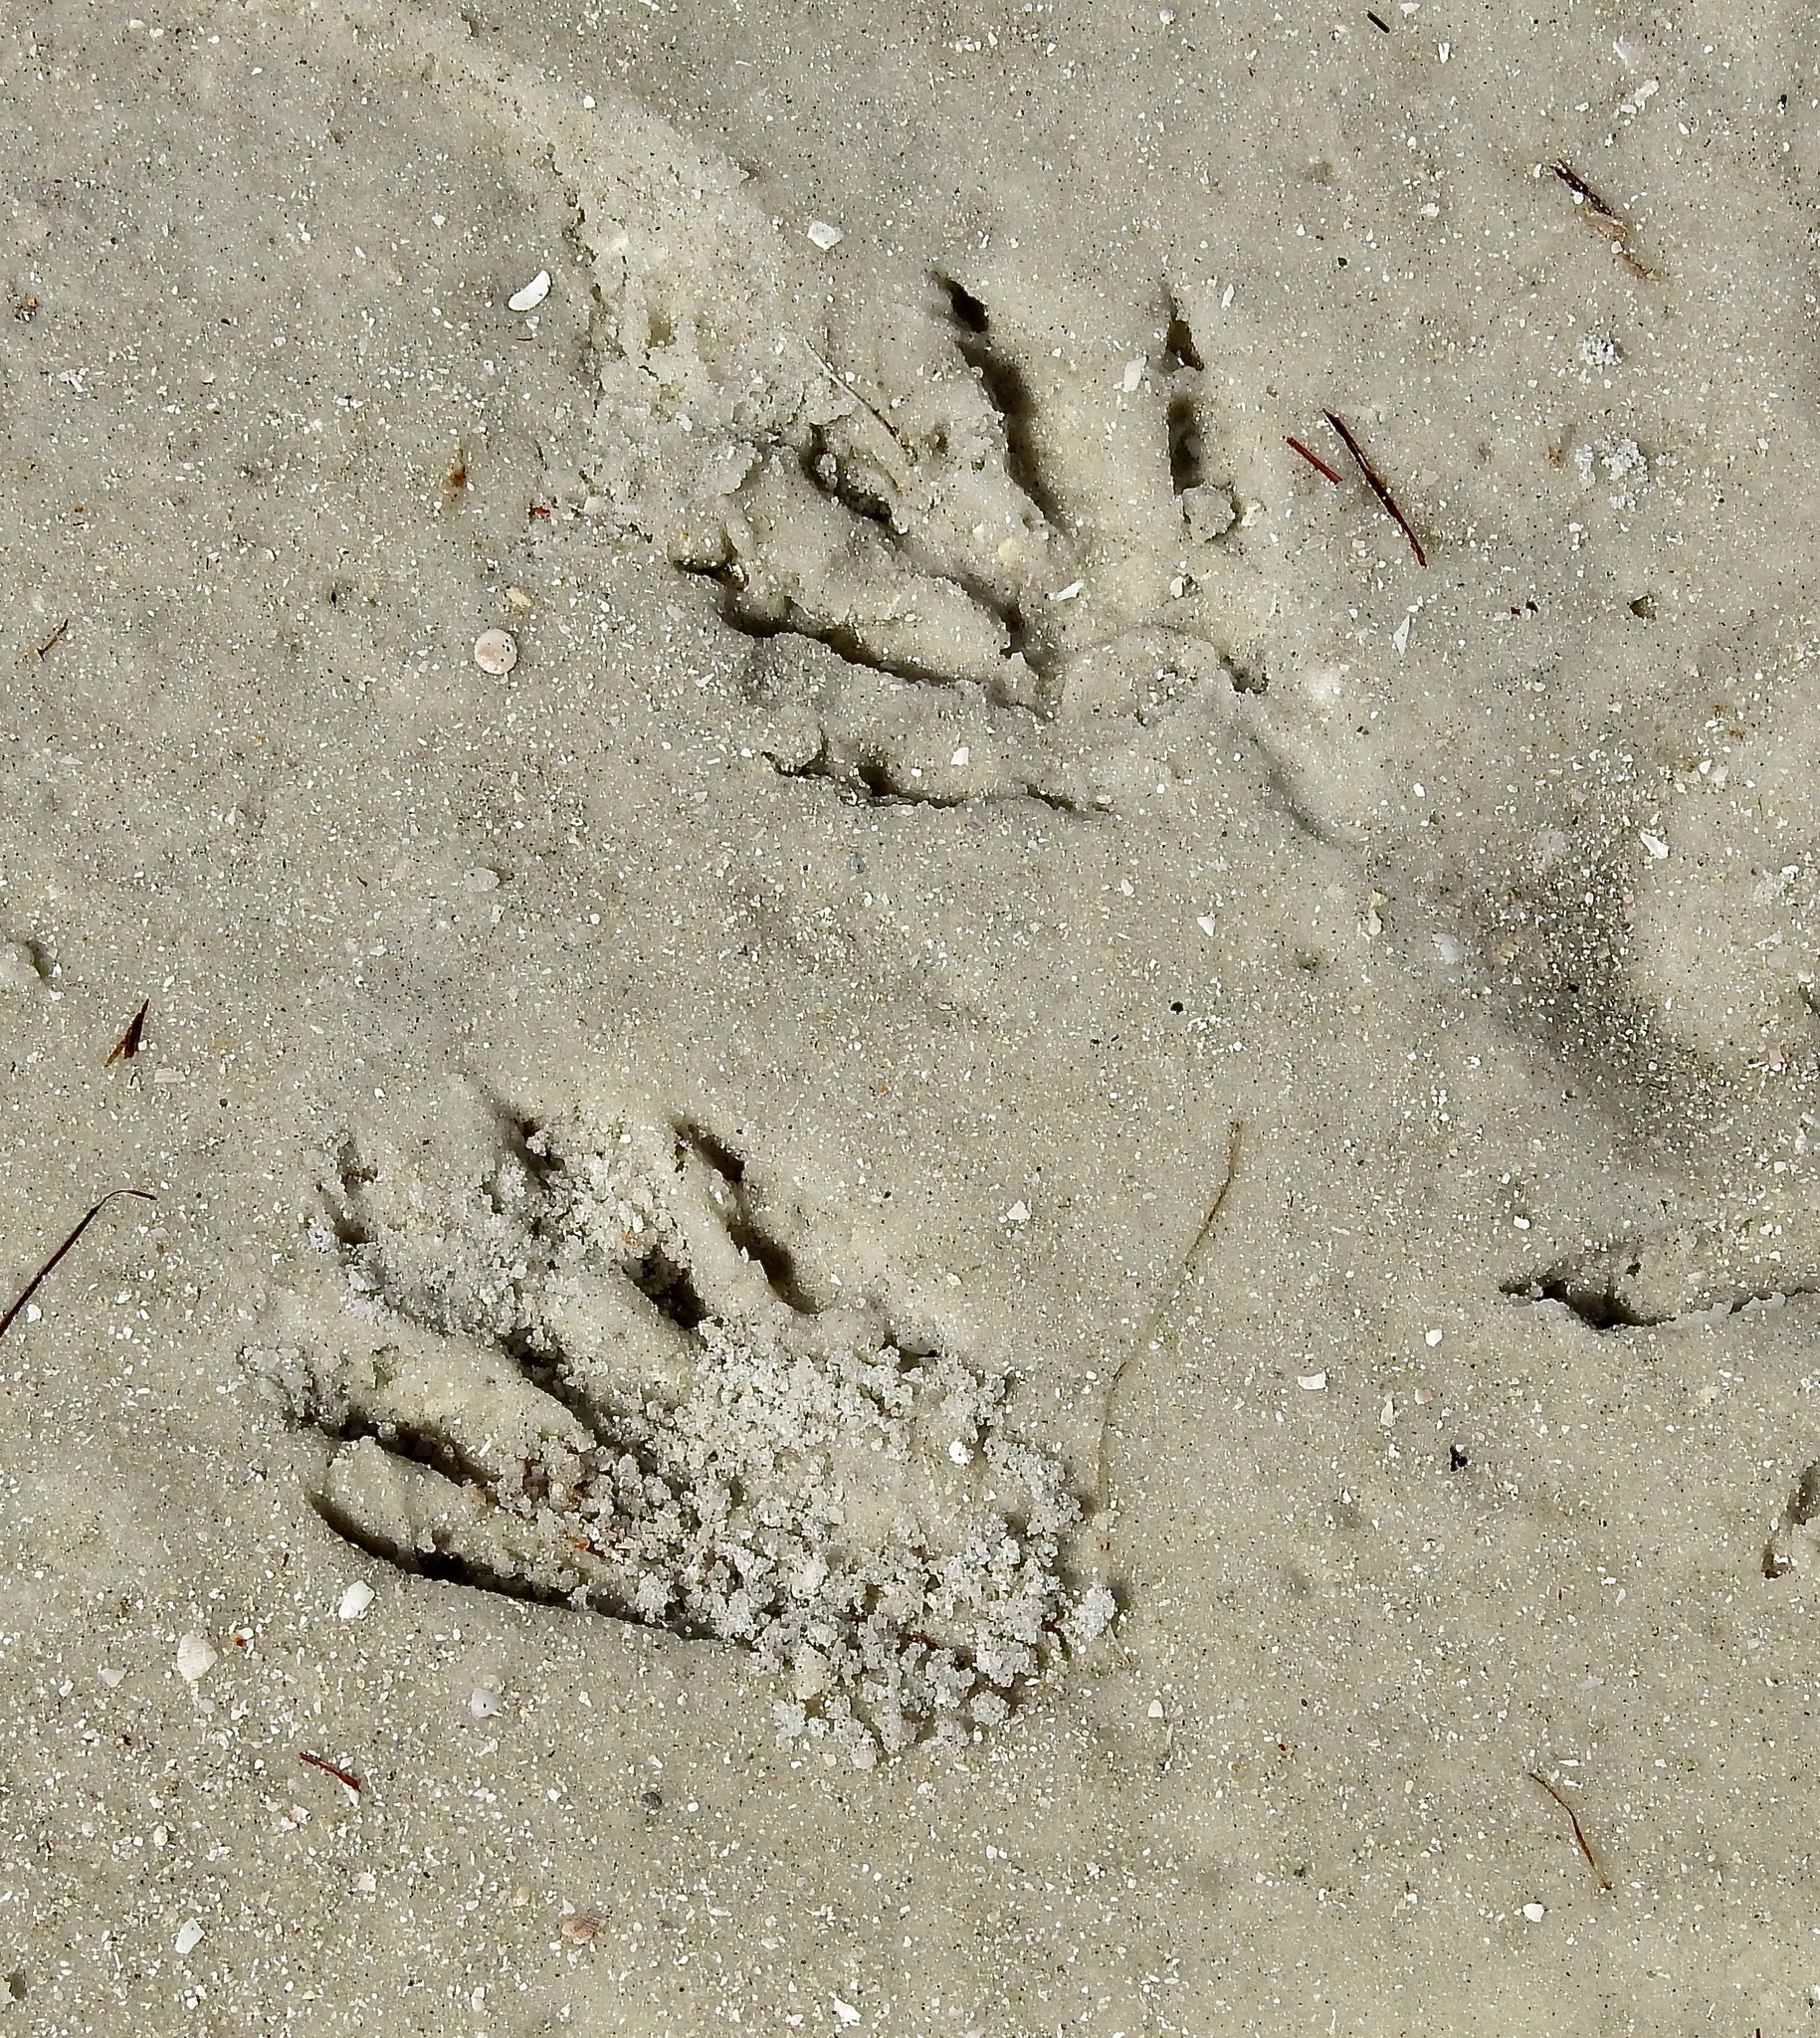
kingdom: Animalia
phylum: Chordata
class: Mammalia
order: Carnivora
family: Procyonidae
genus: Procyon
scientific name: Procyon lotor
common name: Raccoon
